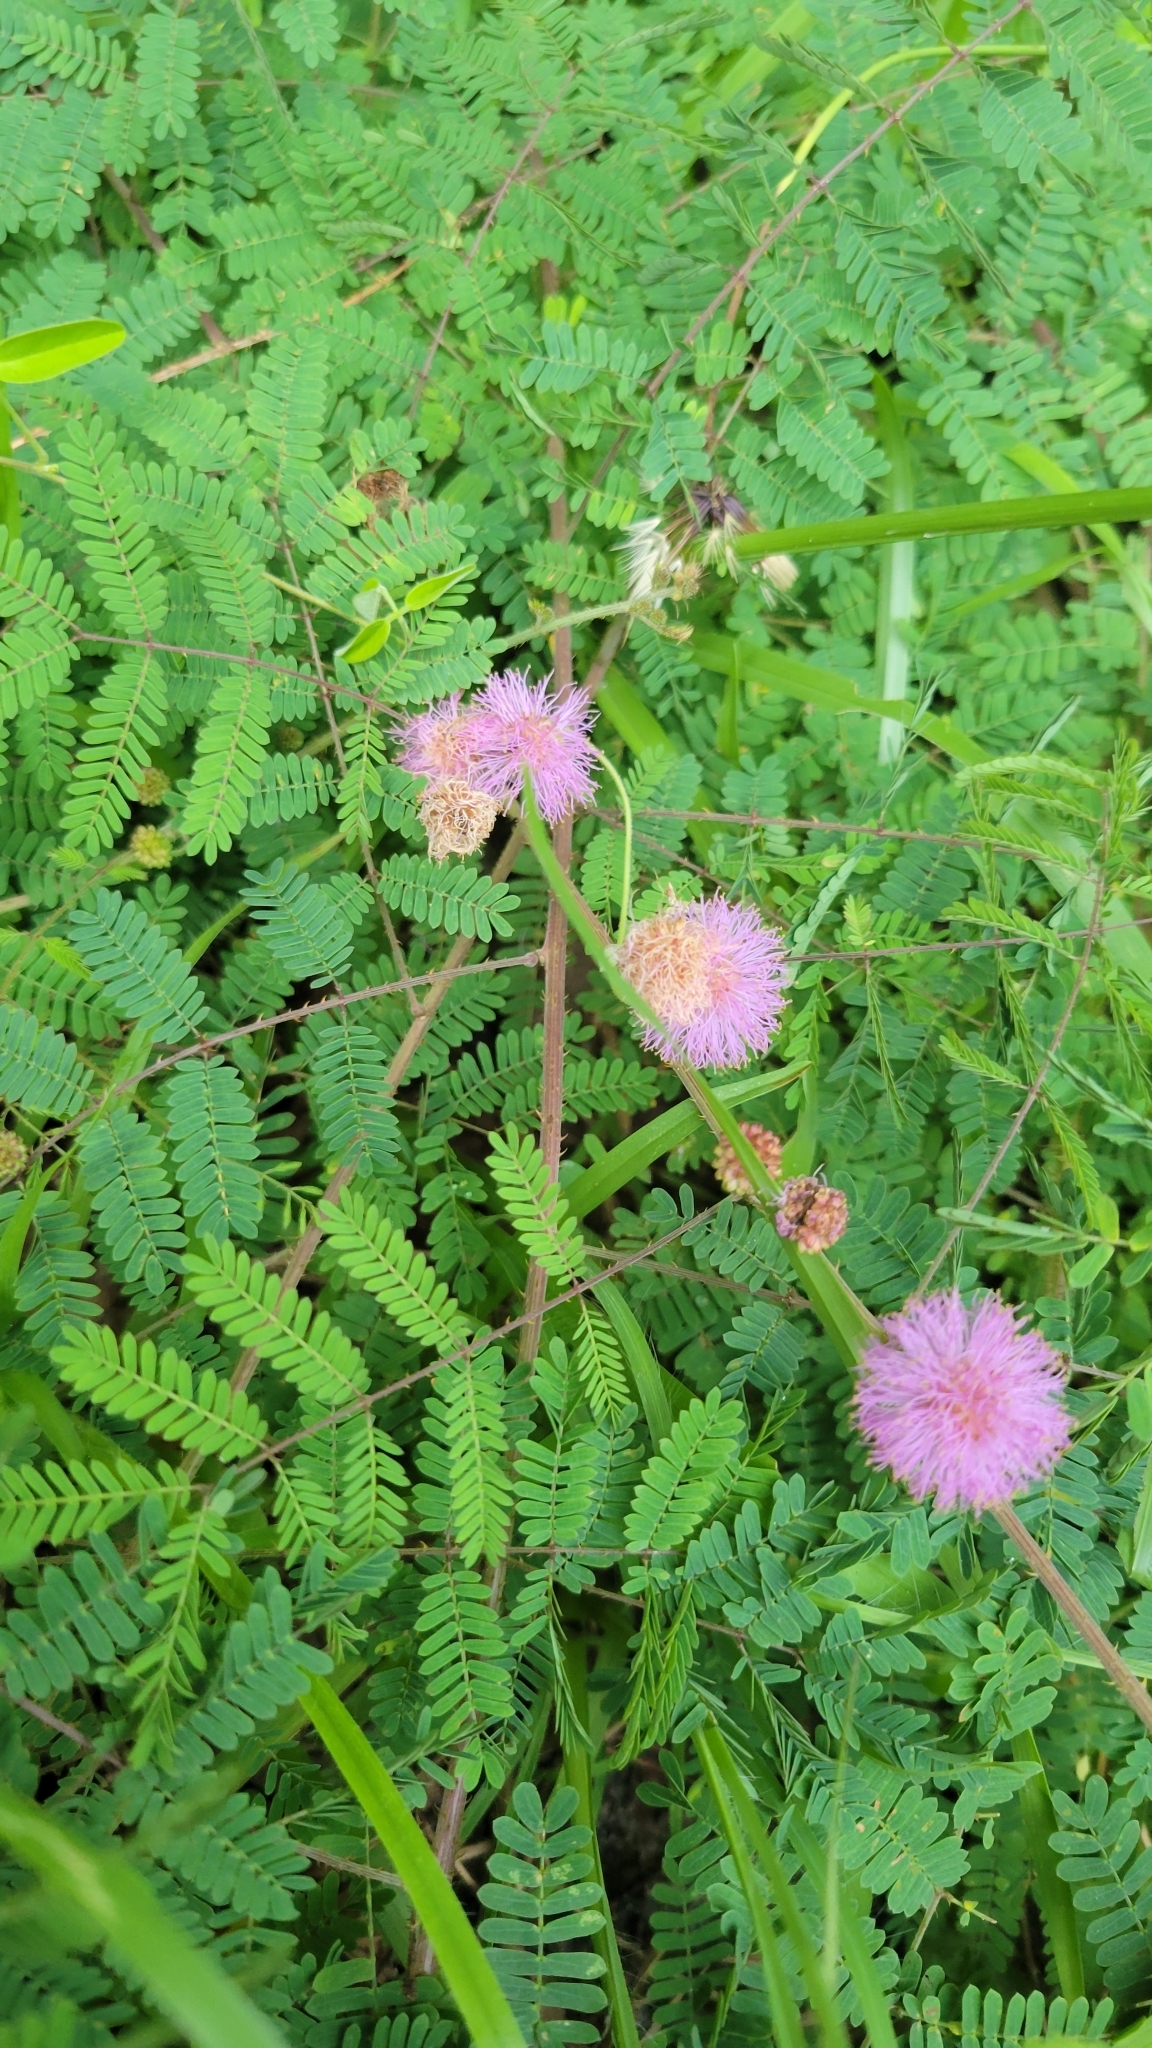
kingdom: Plantae
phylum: Tracheophyta
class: Magnoliopsida
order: Fabales
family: Fabaceae
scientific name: Fabaceae
